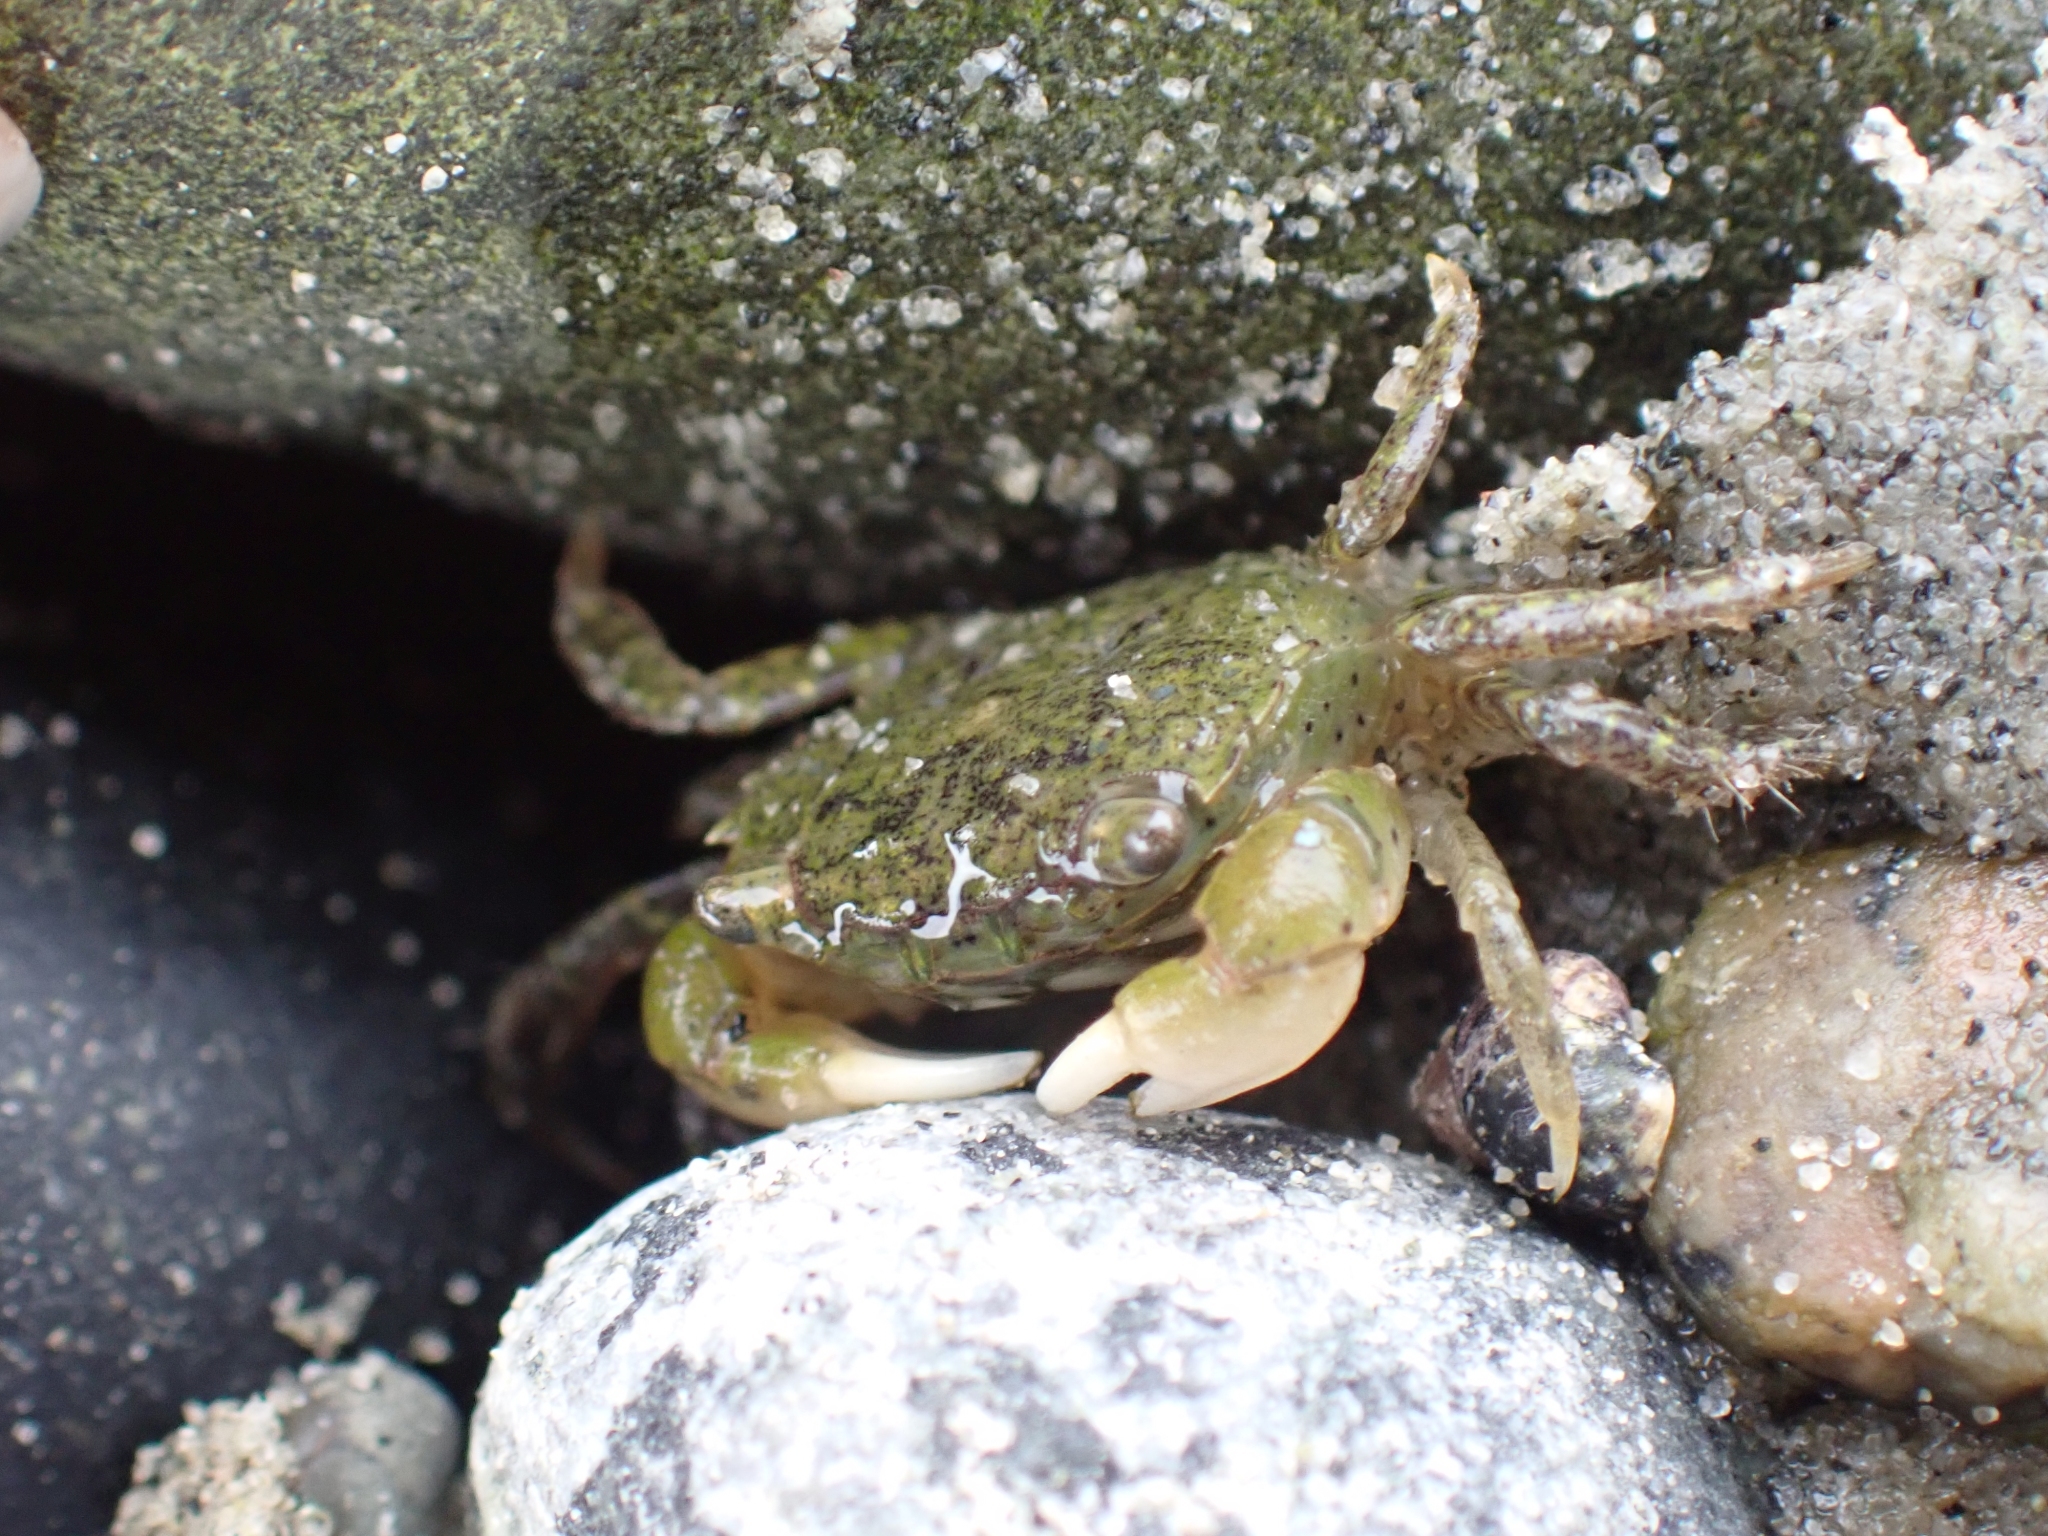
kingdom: Animalia
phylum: Arthropoda
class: Malacostraca
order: Decapoda
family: Varunidae
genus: Hemigrapsus
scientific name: Hemigrapsus oregonensis
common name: Yellow shore crab
